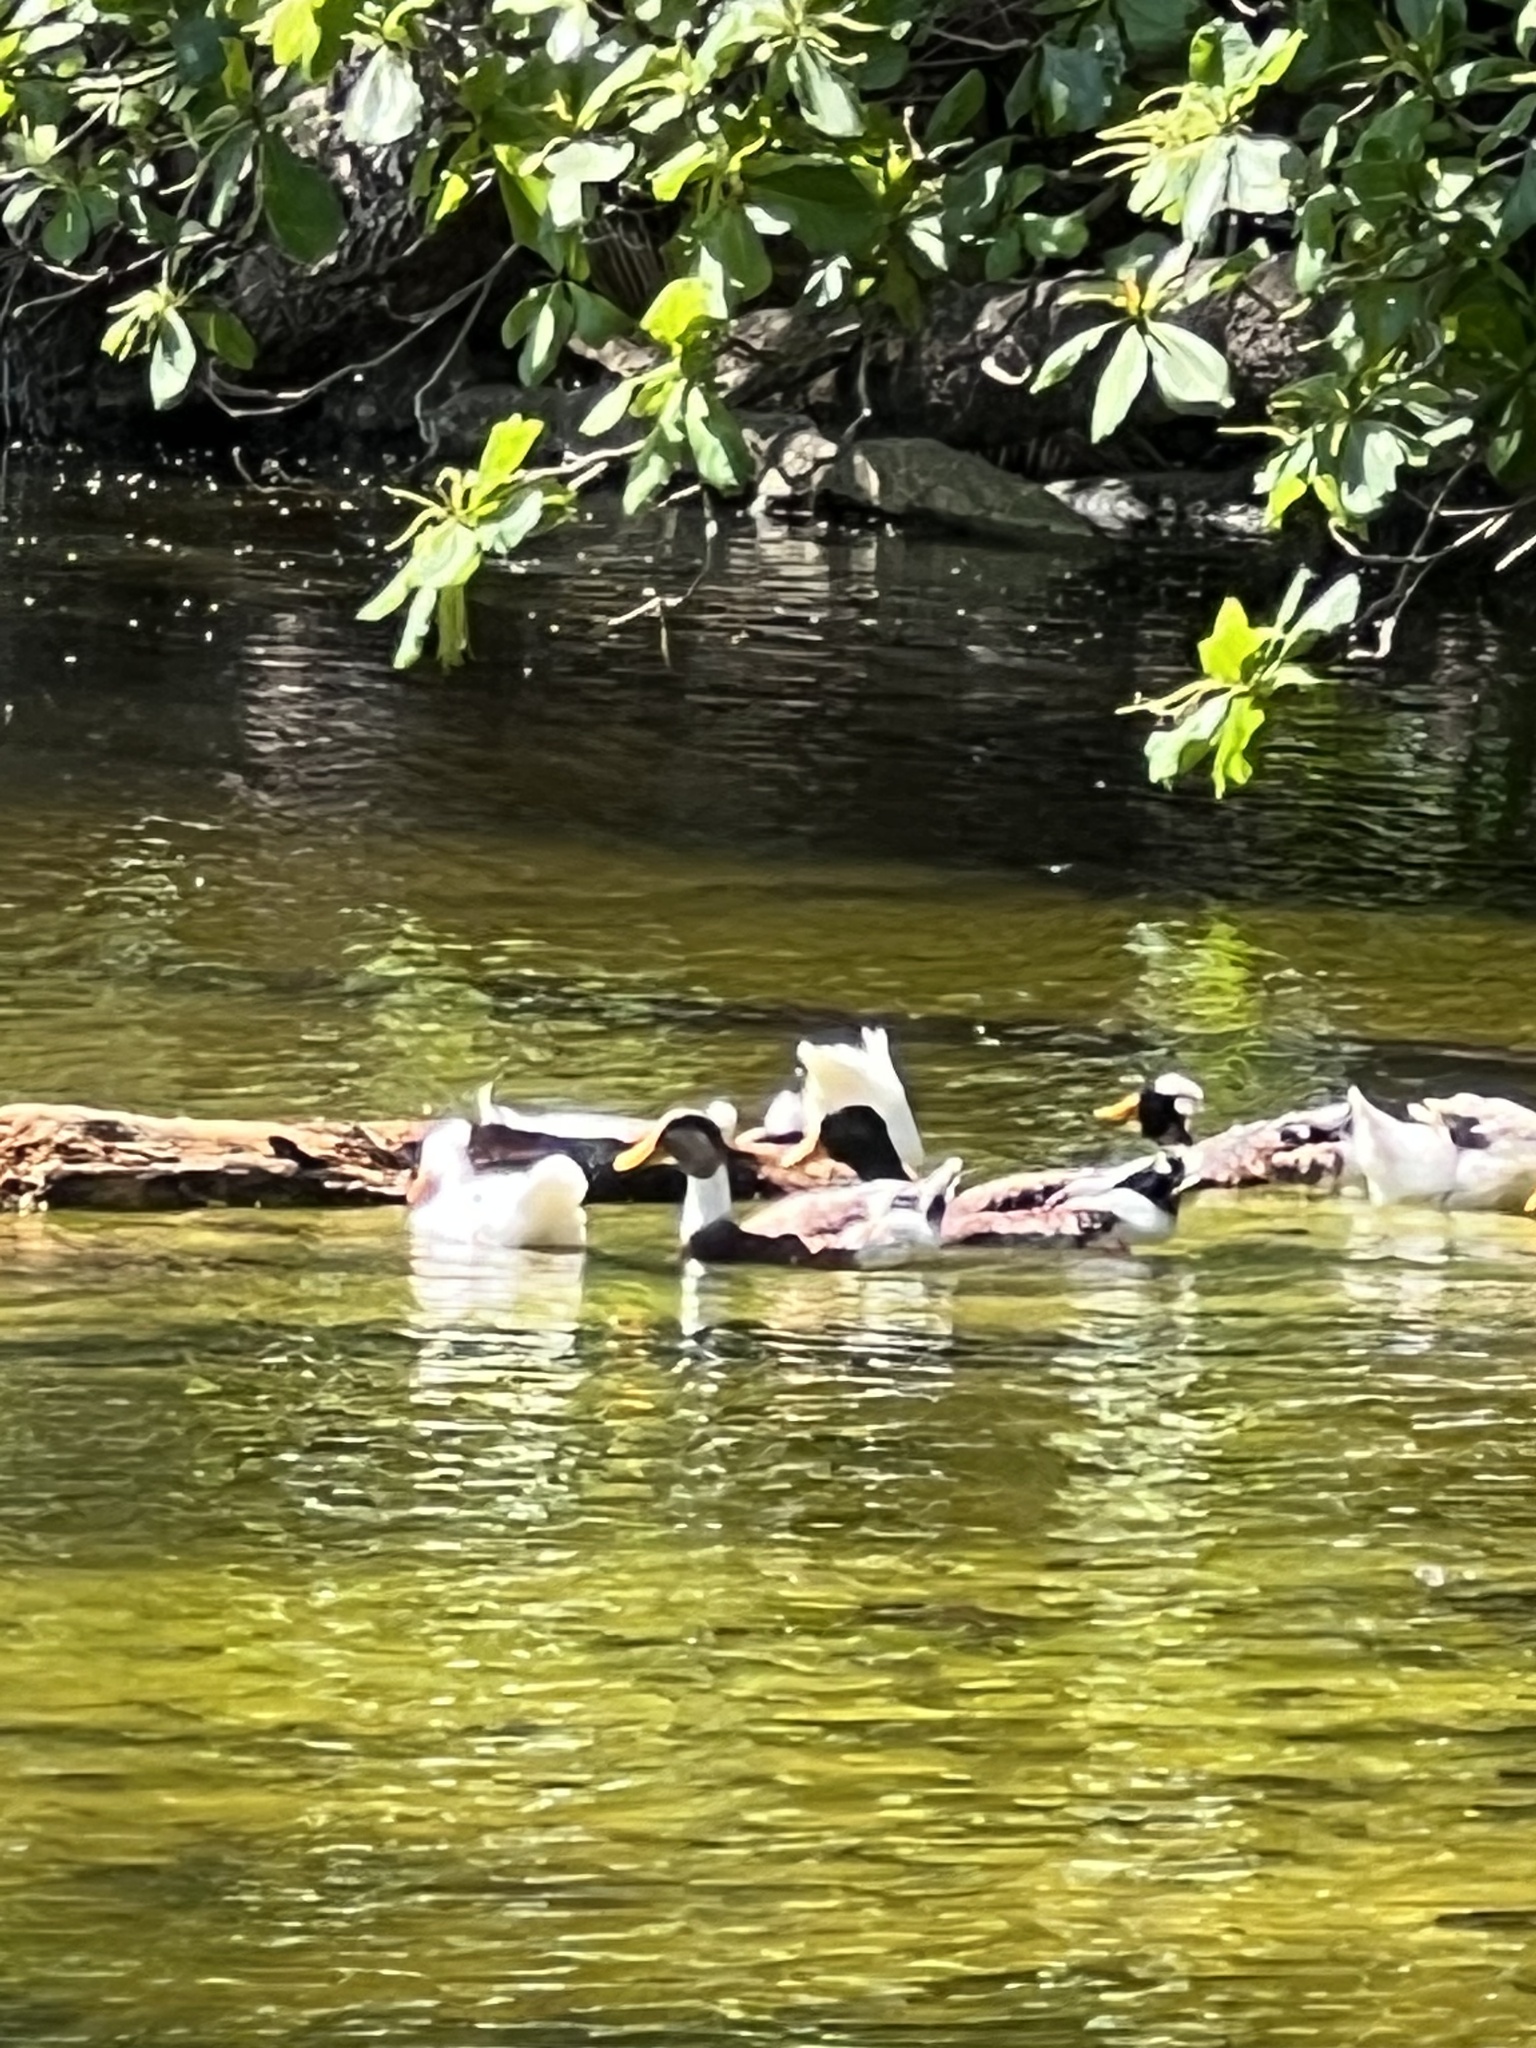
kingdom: Animalia
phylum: Chordata
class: Aves
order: Anseriformes
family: Anatidae
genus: Anas
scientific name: Anas platyrhynchos
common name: Mallard
